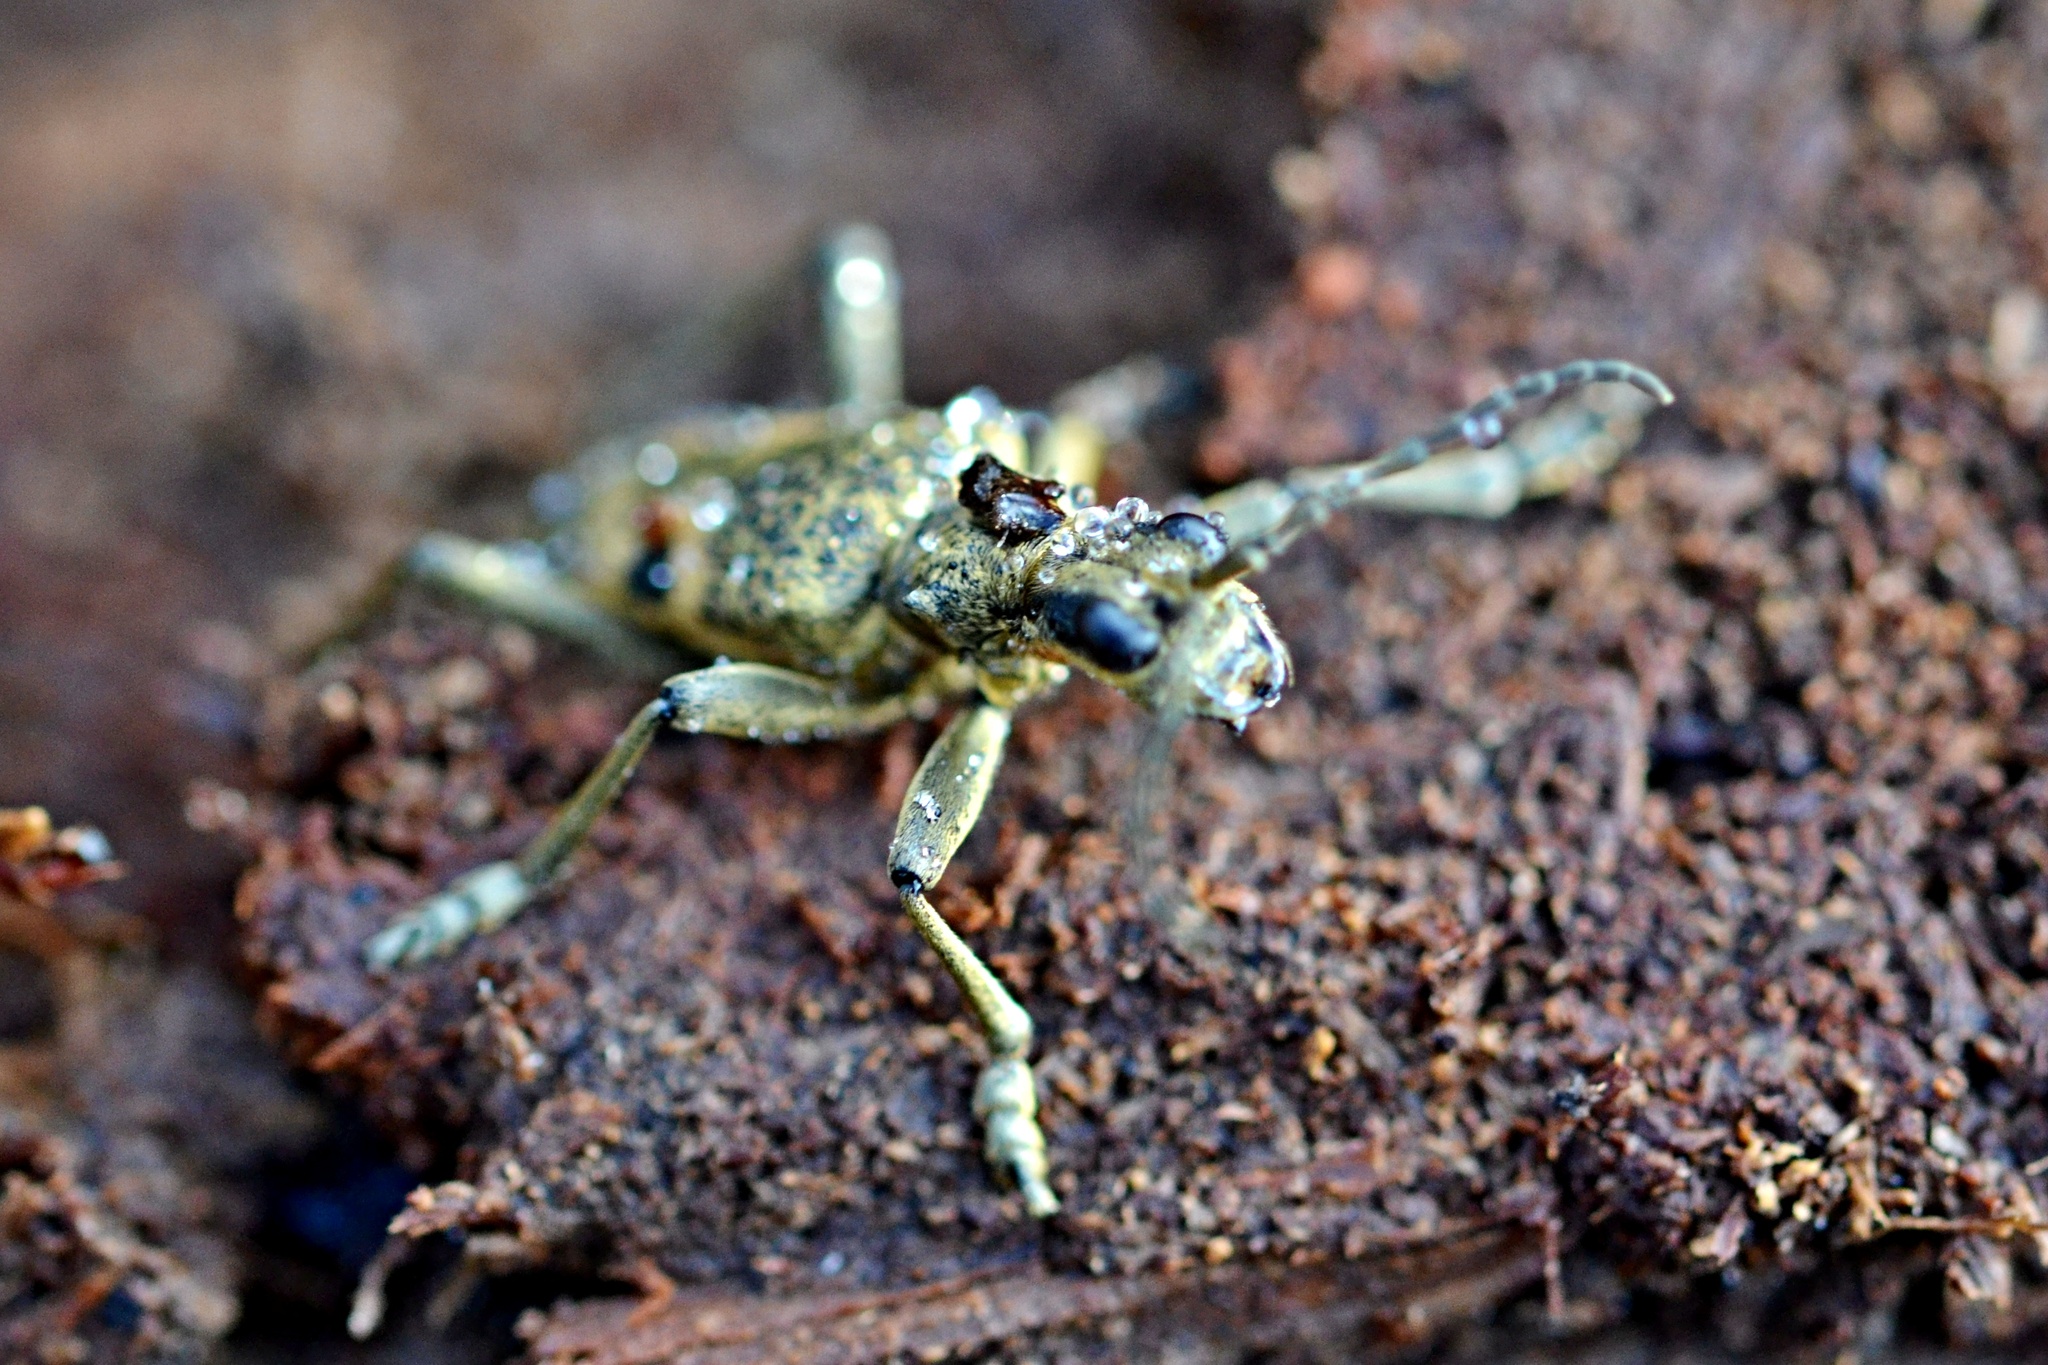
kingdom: Animalia
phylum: Arthropoda
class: Insecta
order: Coleoptera
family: Cerambycidae
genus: Rhagium
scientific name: Rhagium mordax
